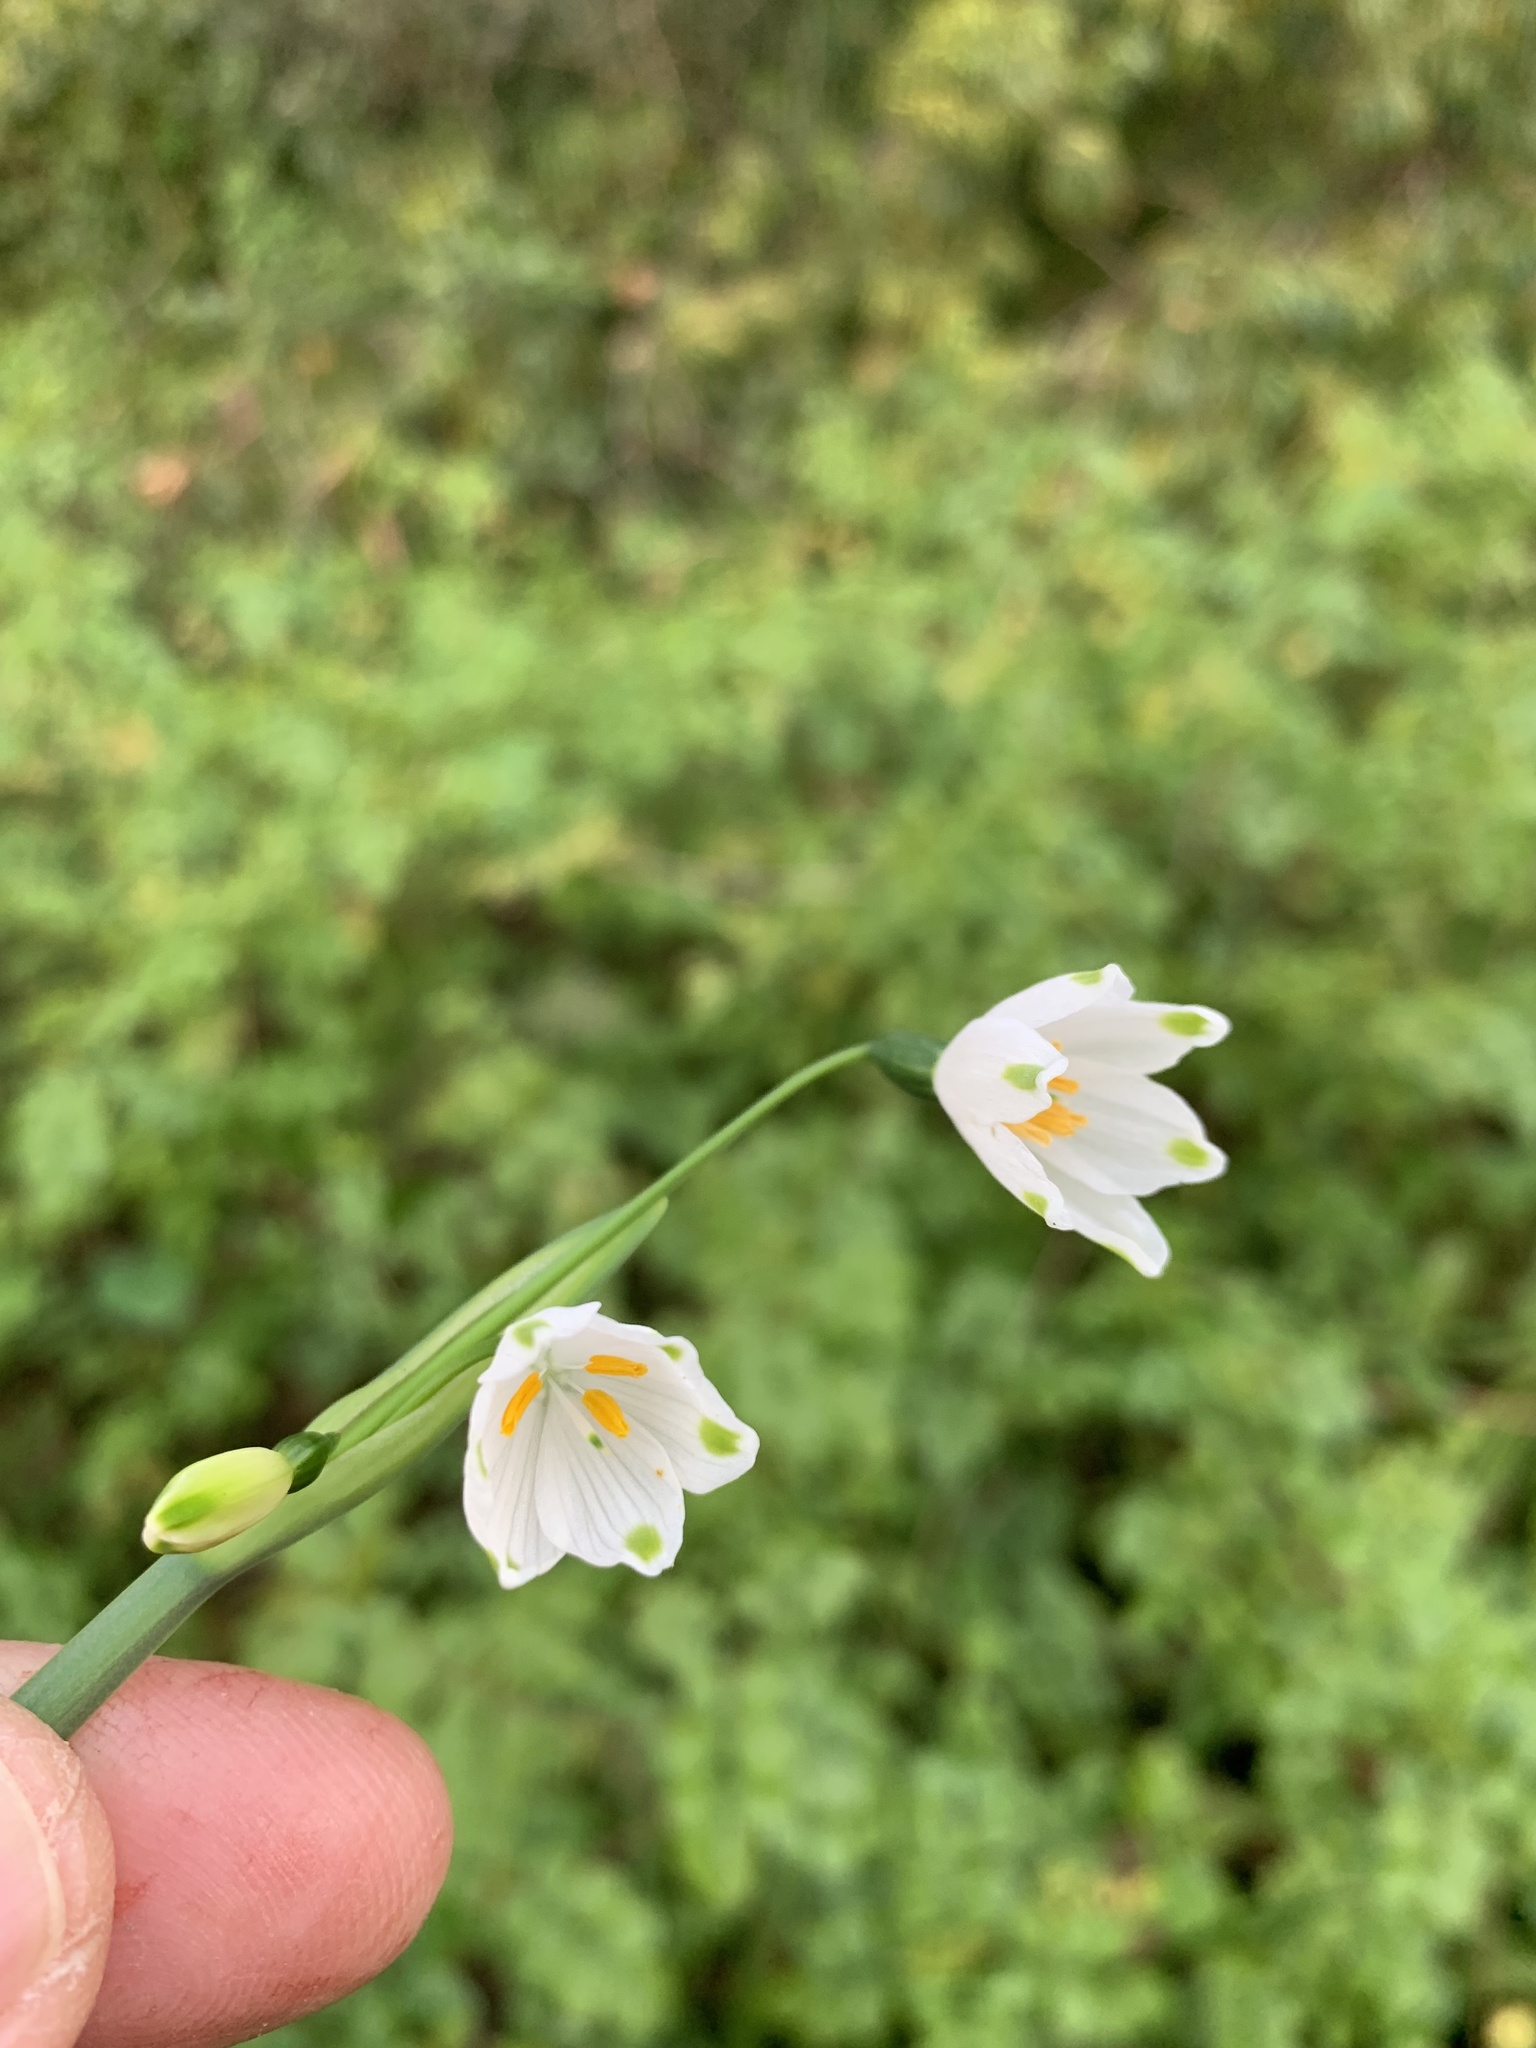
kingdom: Plantae
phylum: Tracheophyta
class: Liliopsida
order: Asparagales
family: Amaryllidaceae
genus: Leucojum
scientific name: Leucojum aestivum
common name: Summer snowflake
